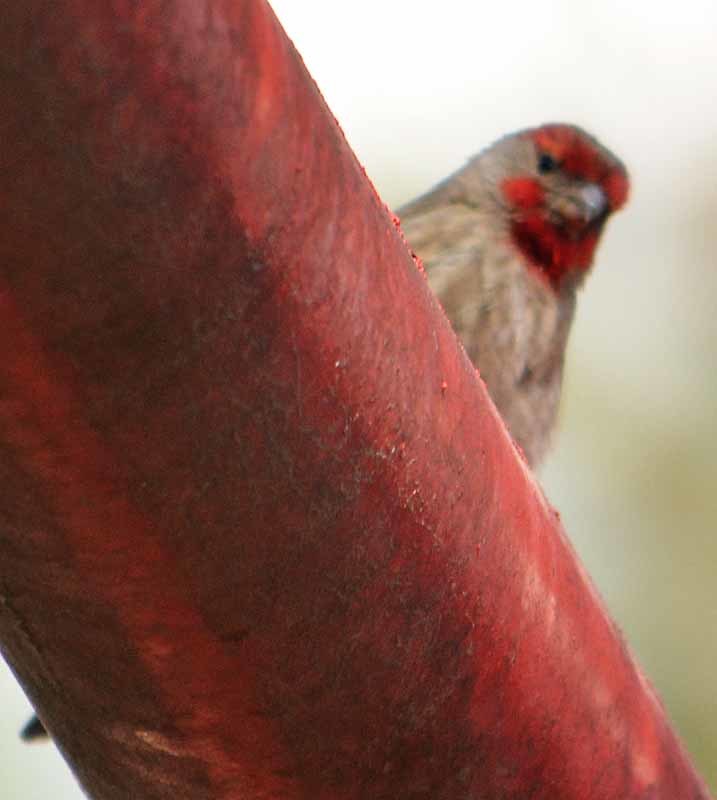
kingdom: Animalia
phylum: Chordata
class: Aves
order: Passeriformes
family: Fringillidae
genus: Haemorhous
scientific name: Haemorhous mexicanus
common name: House finch
